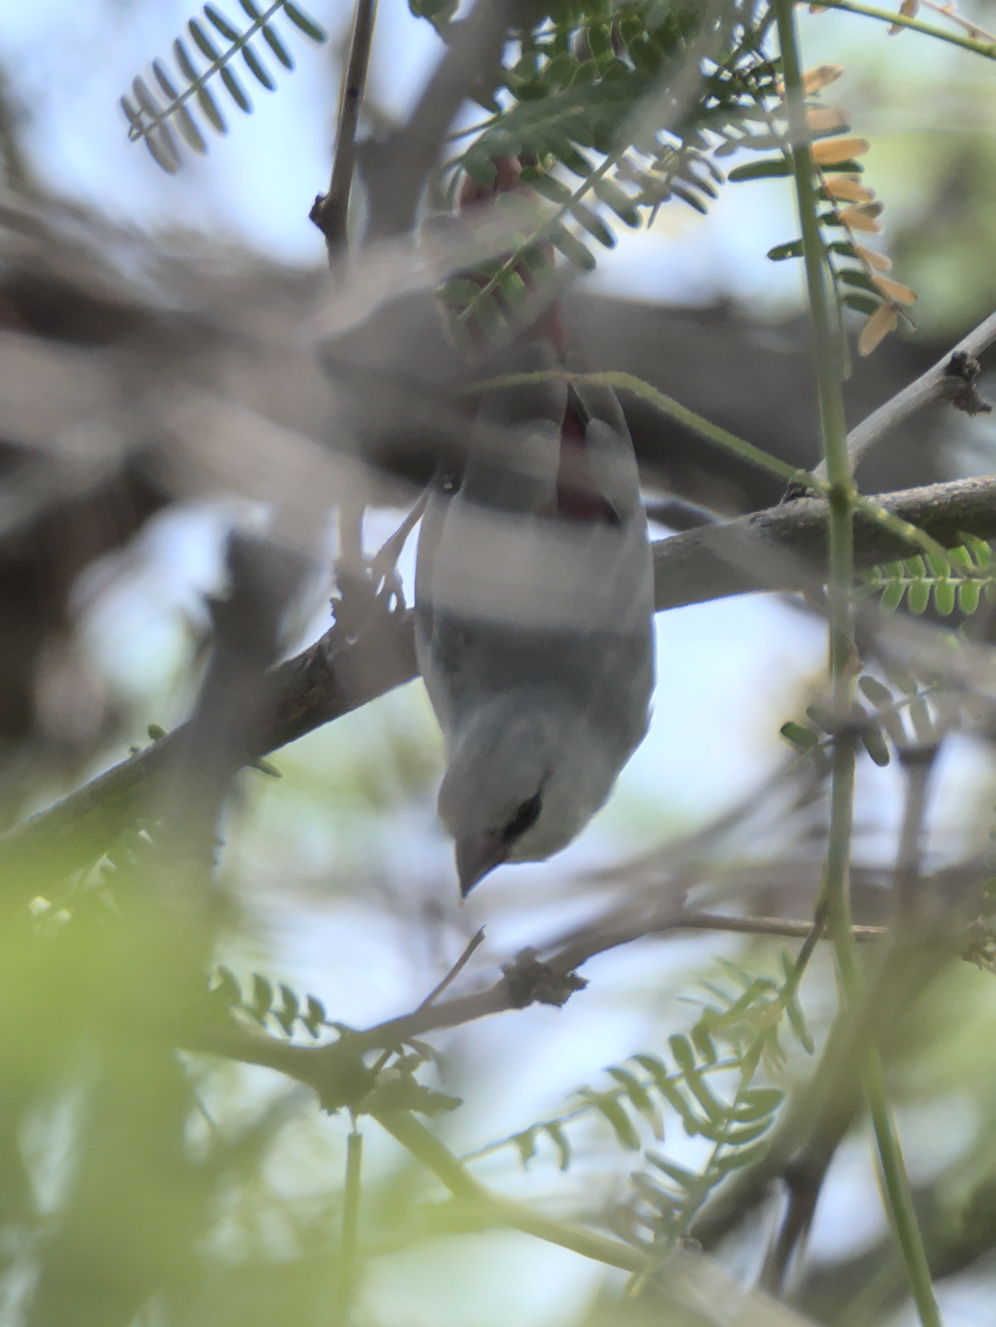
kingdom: Animalia
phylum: Chordata
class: Aves
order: Passeriformes
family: Estrildidae
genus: Estrilda
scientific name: Estrilda caerulescens
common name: Lavender waxbill
